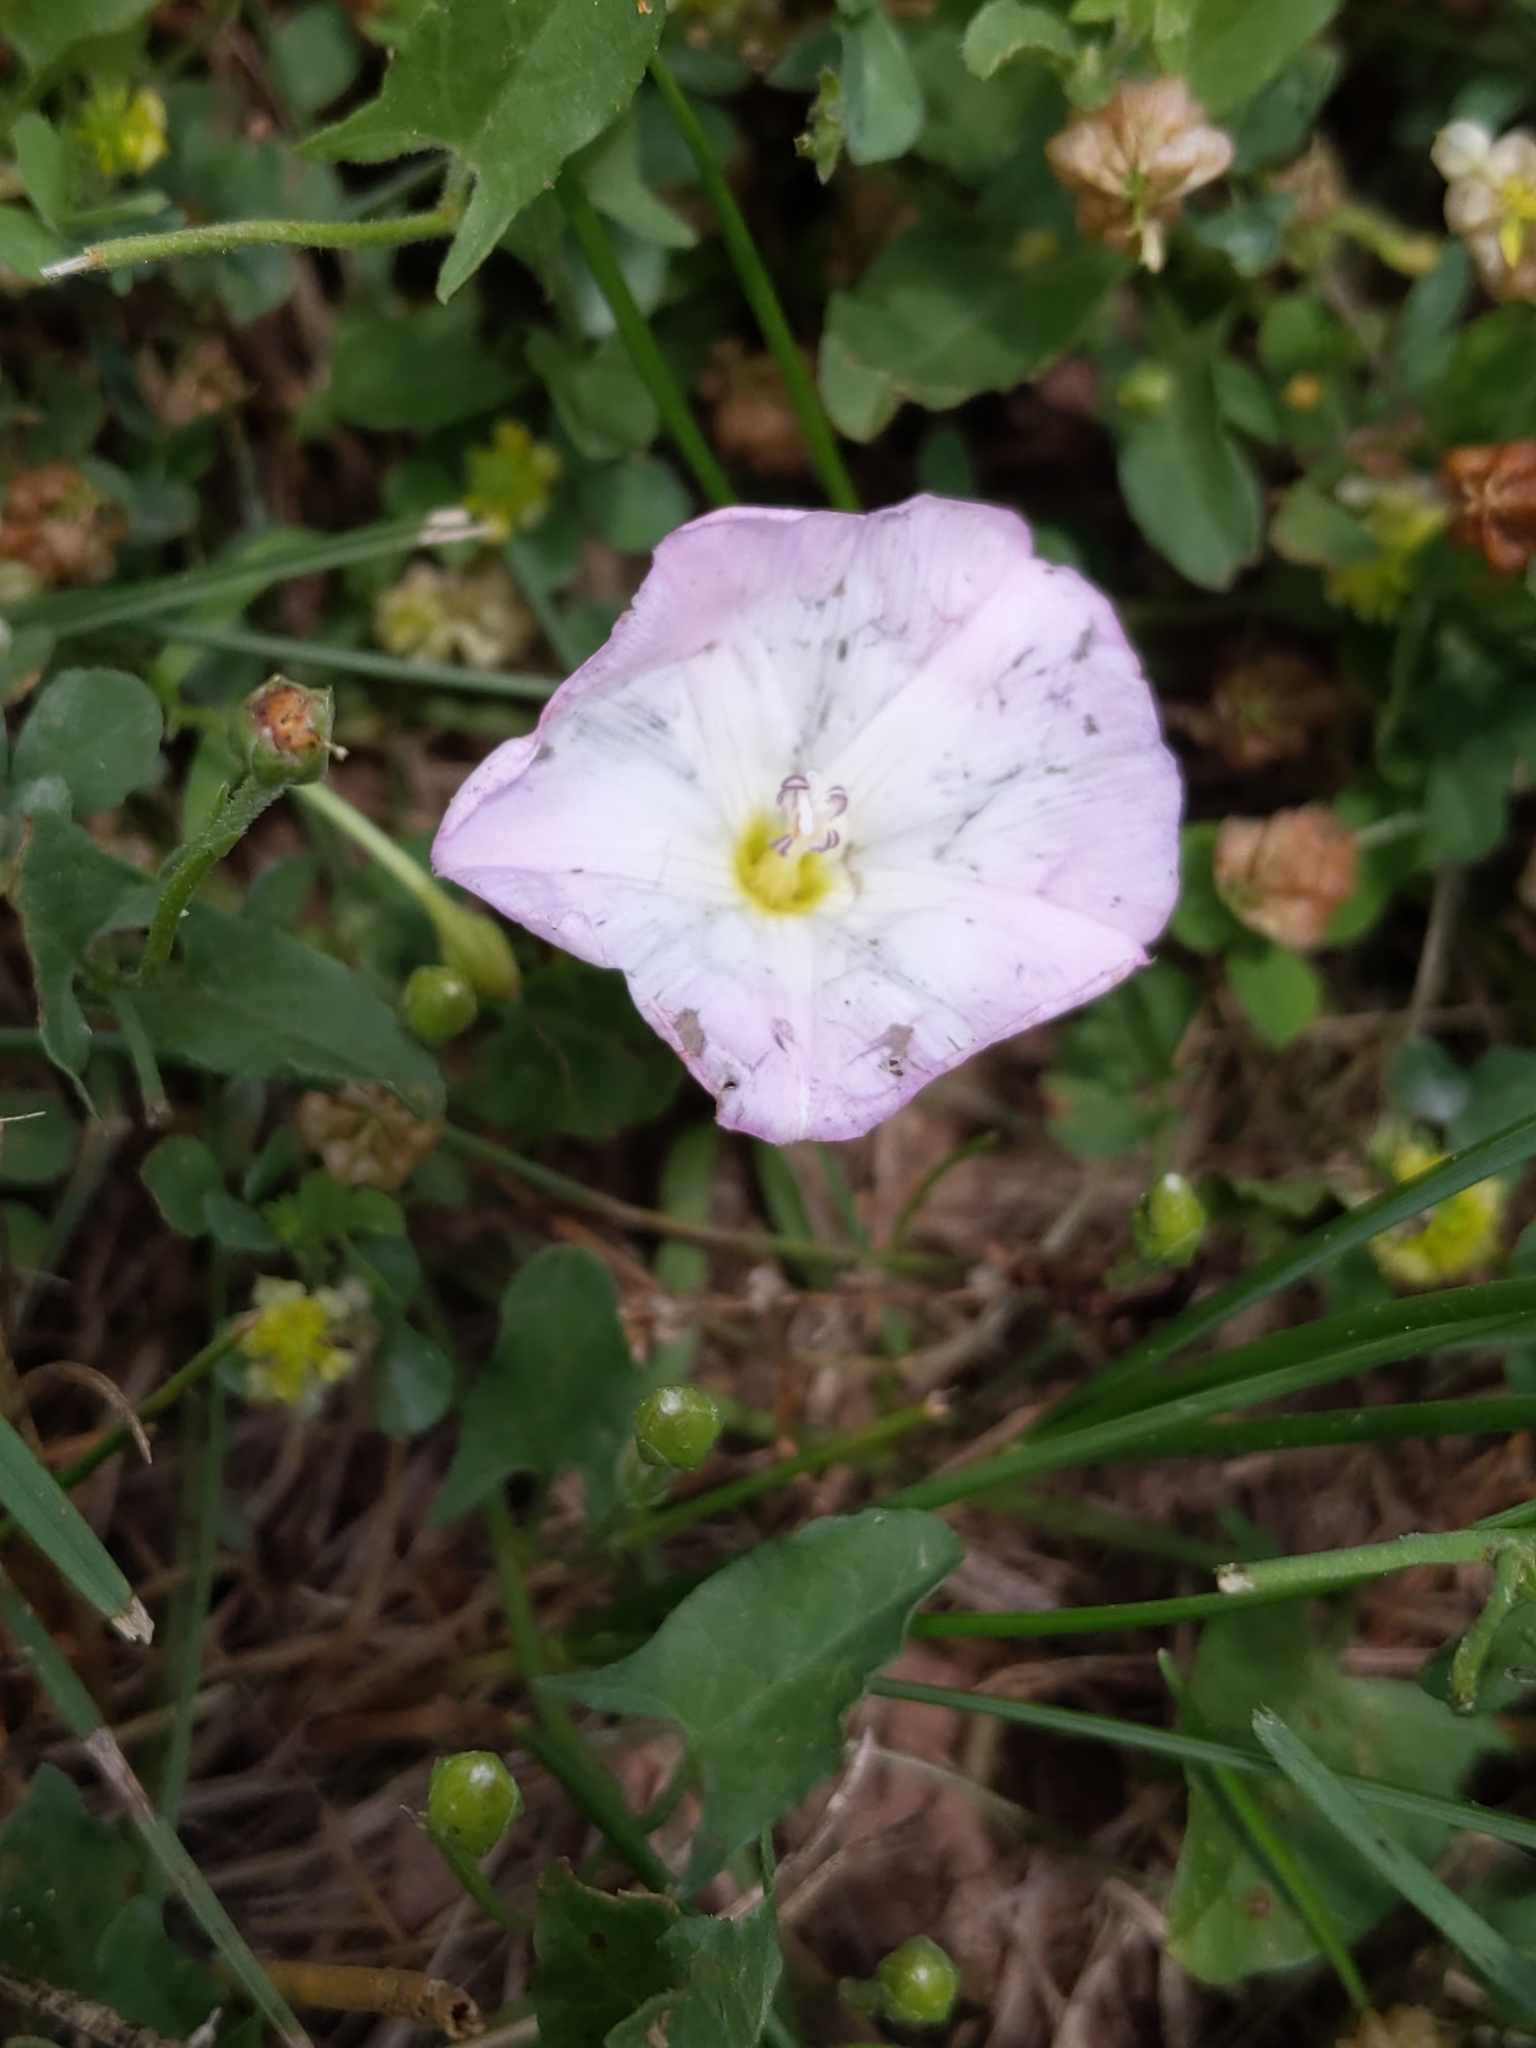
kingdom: Plantae
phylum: Tracheophyta
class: Magnoliopsida
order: Solanales
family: Convolvulaceae
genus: Convolvulus
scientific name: Convolvulus arvensis
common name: Field bindweed
